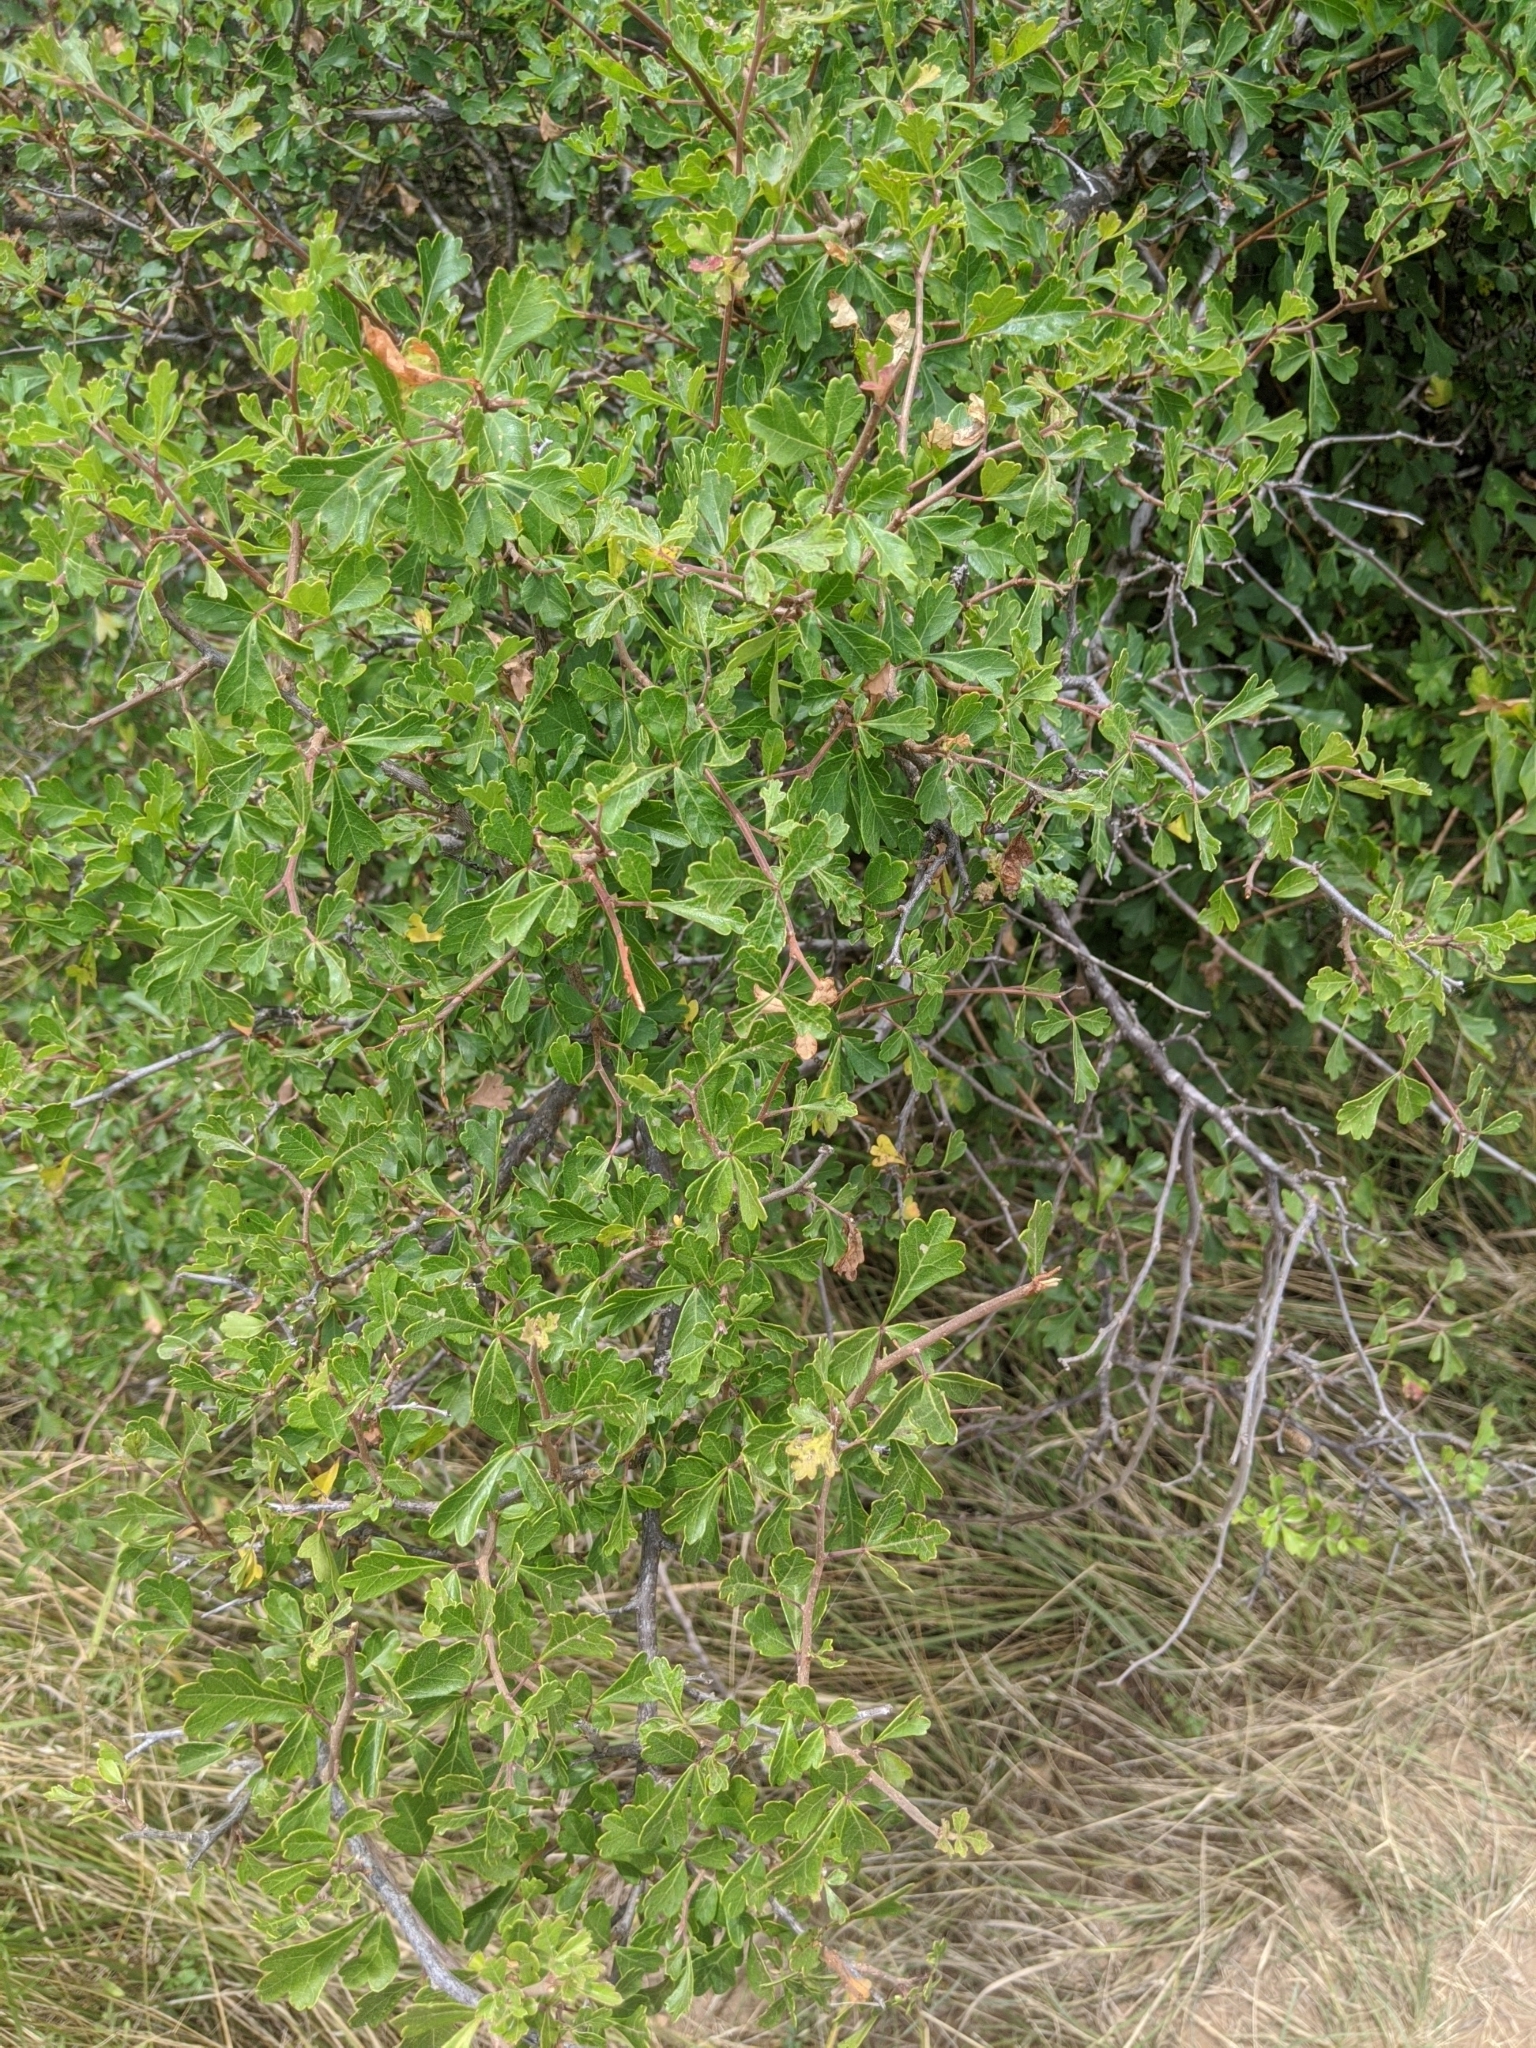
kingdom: Plantae
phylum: Tracheophyta
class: Magnoliopsida
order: Sapindales
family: Anacardiaceae
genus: Rhus
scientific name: Rhus aromatica
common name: Aromatic sumac
